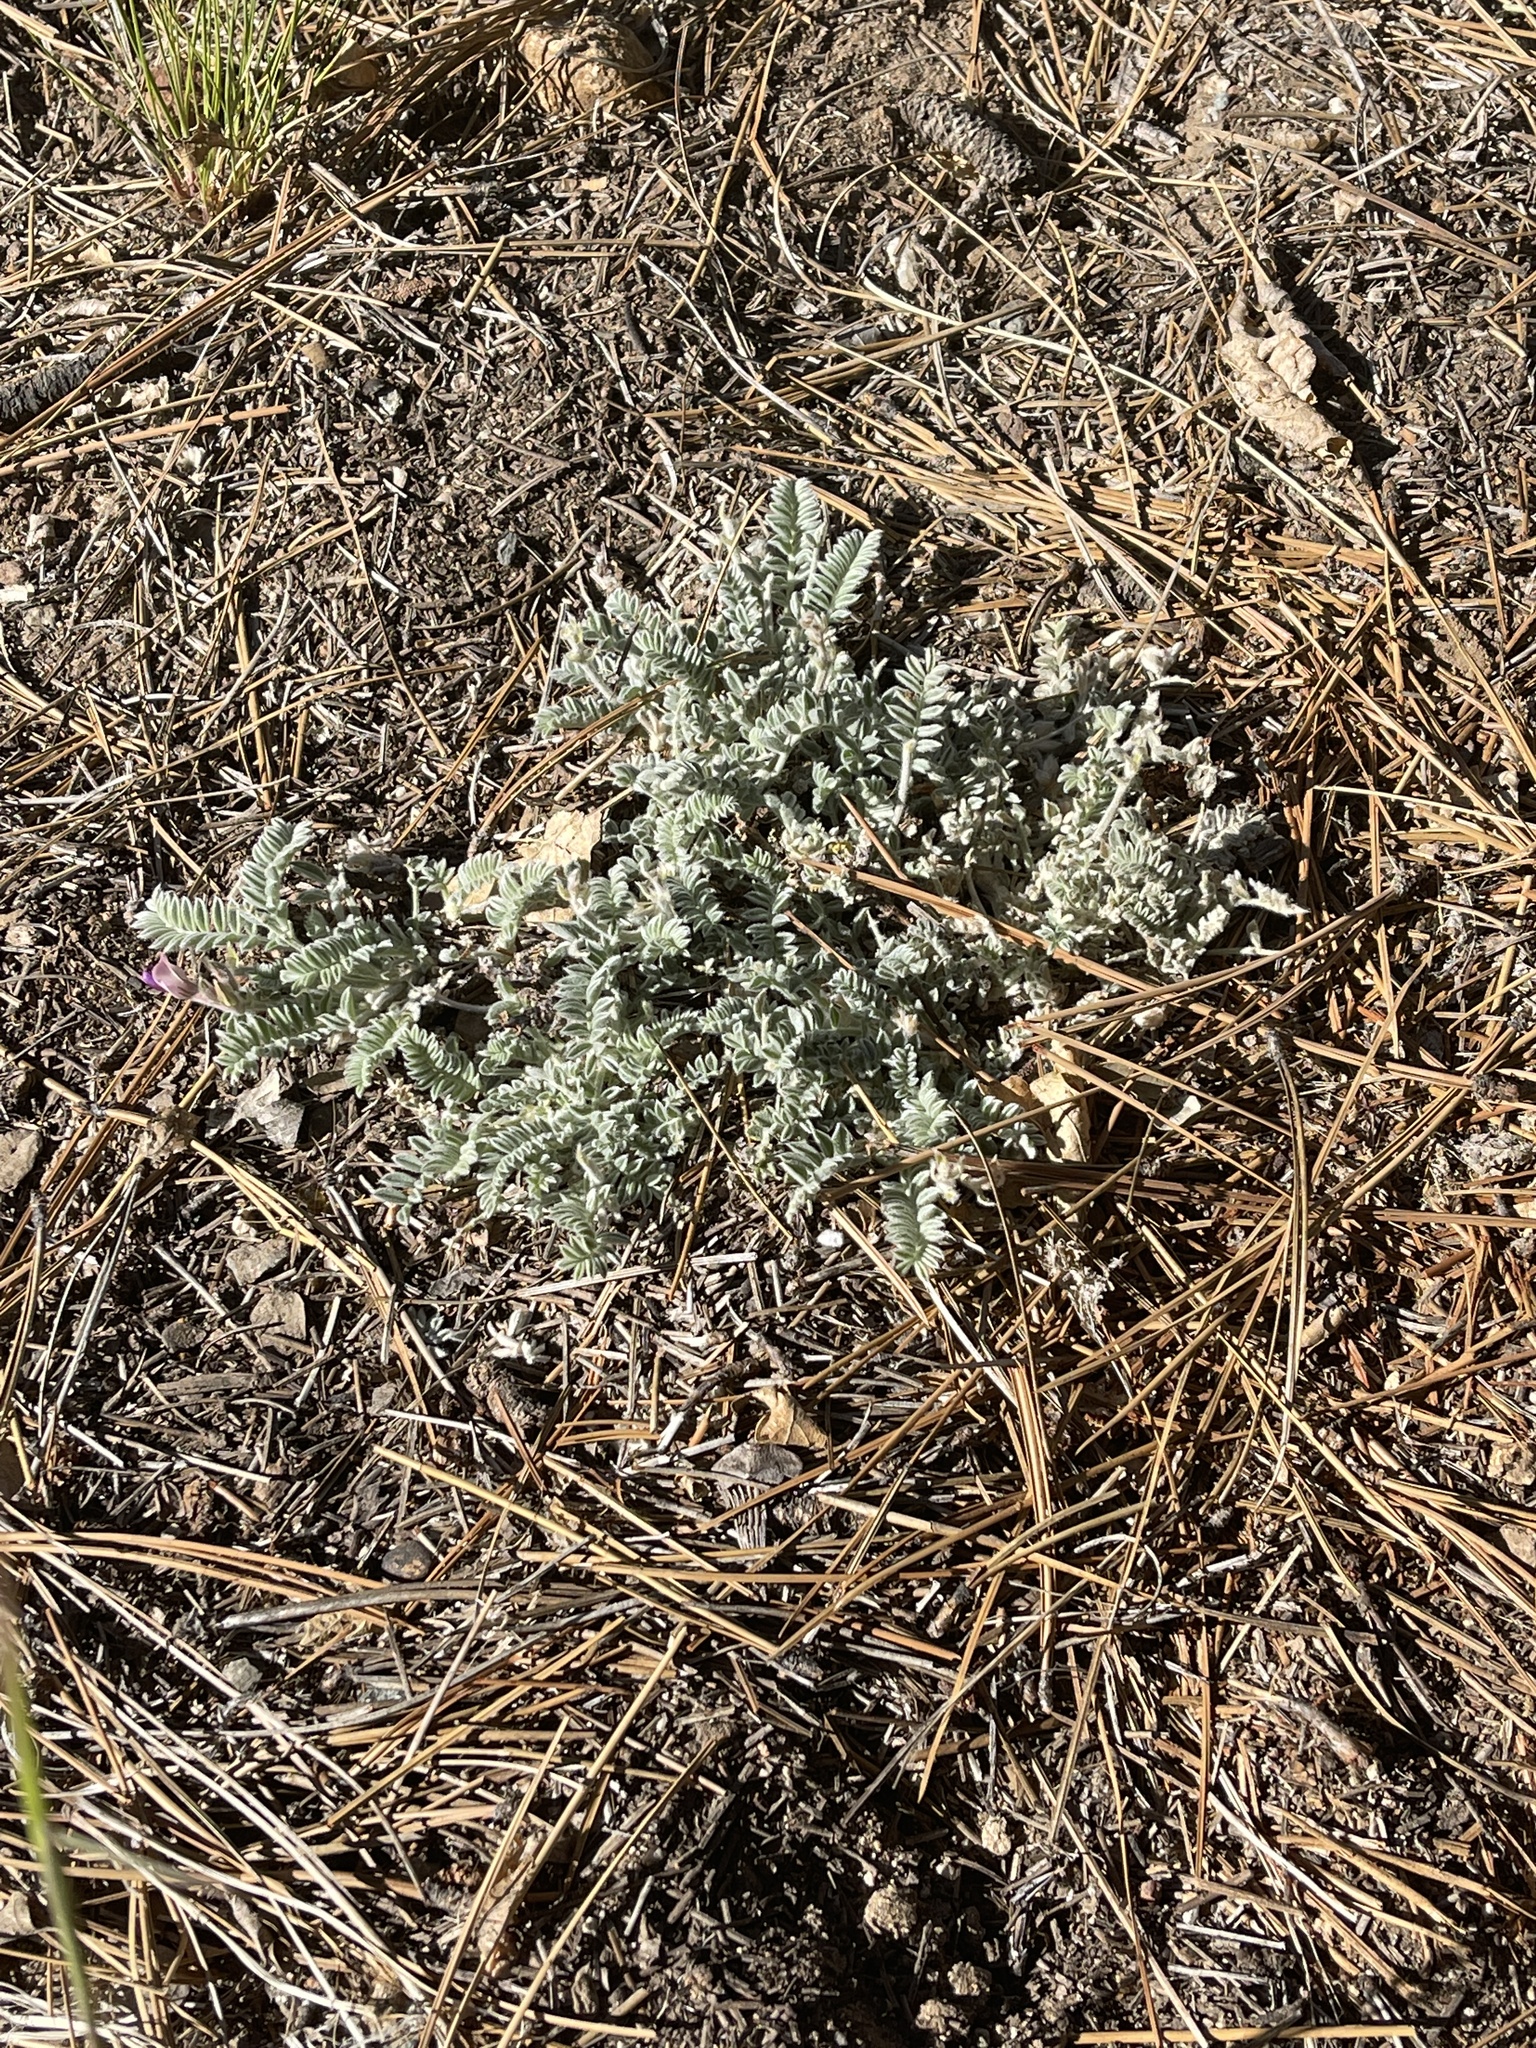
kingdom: Plantae
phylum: Tracheophyta
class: Magnoliopsida
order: Fabales
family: Fabaceae
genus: Astragalus
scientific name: Astragalus leucolobus
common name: Big bear valley woollypod
